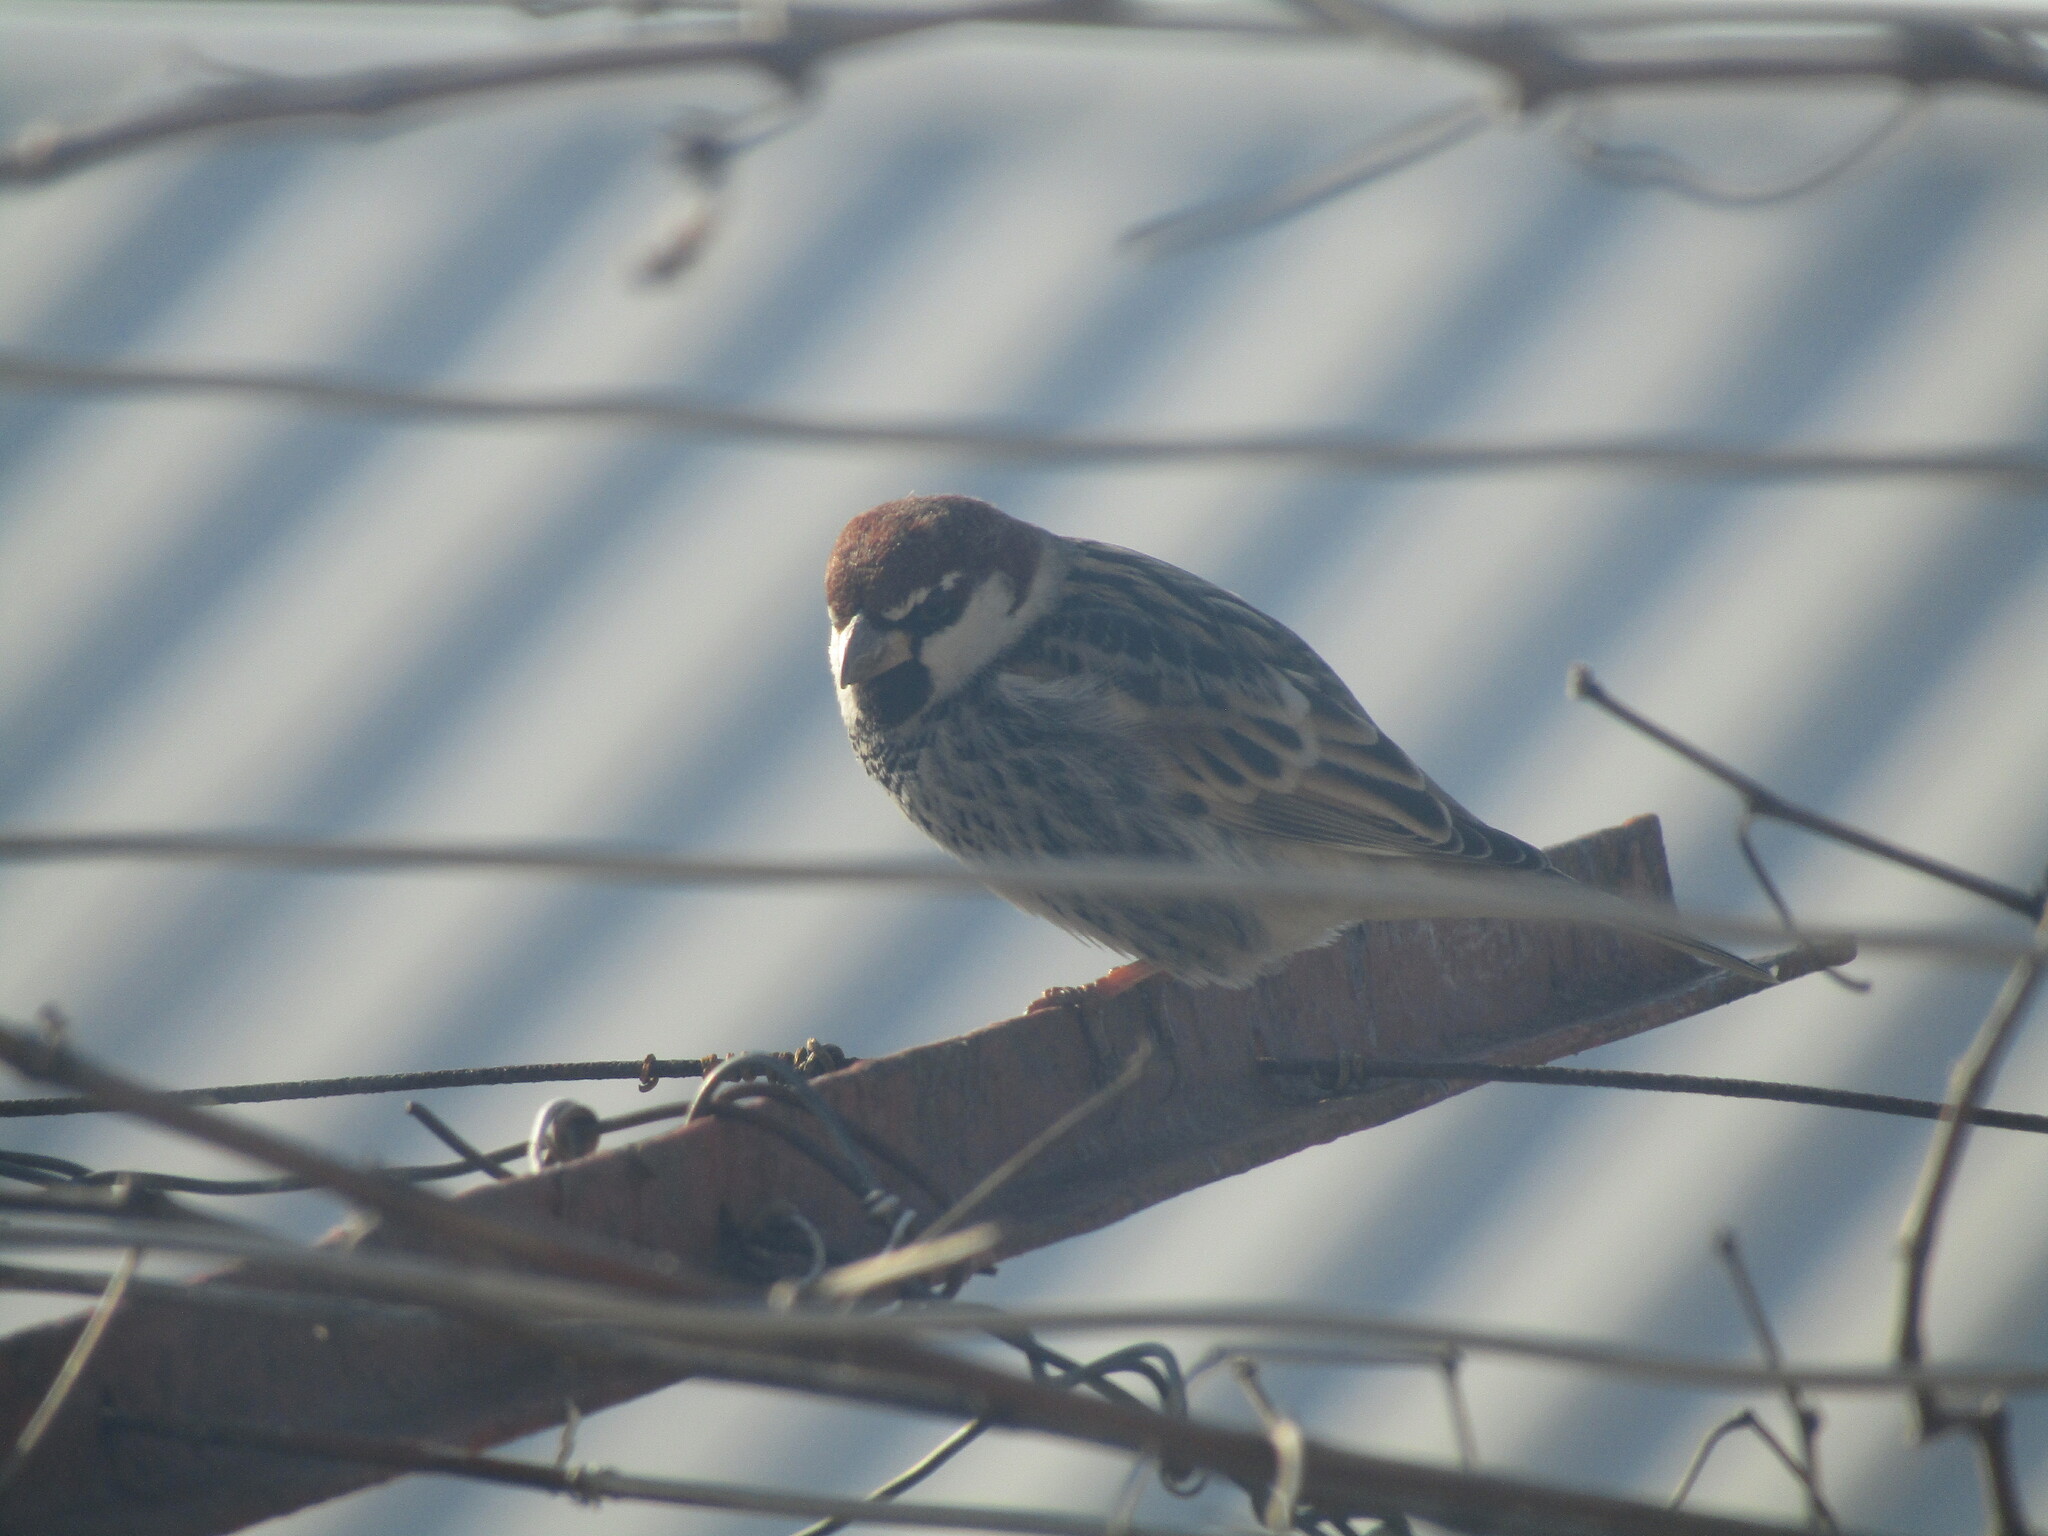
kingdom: Animalia
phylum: Chordata
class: Aves
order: Passeriformes
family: Passeridae
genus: Passer
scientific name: Passer hispaniolensis
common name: Spanish sparrow
